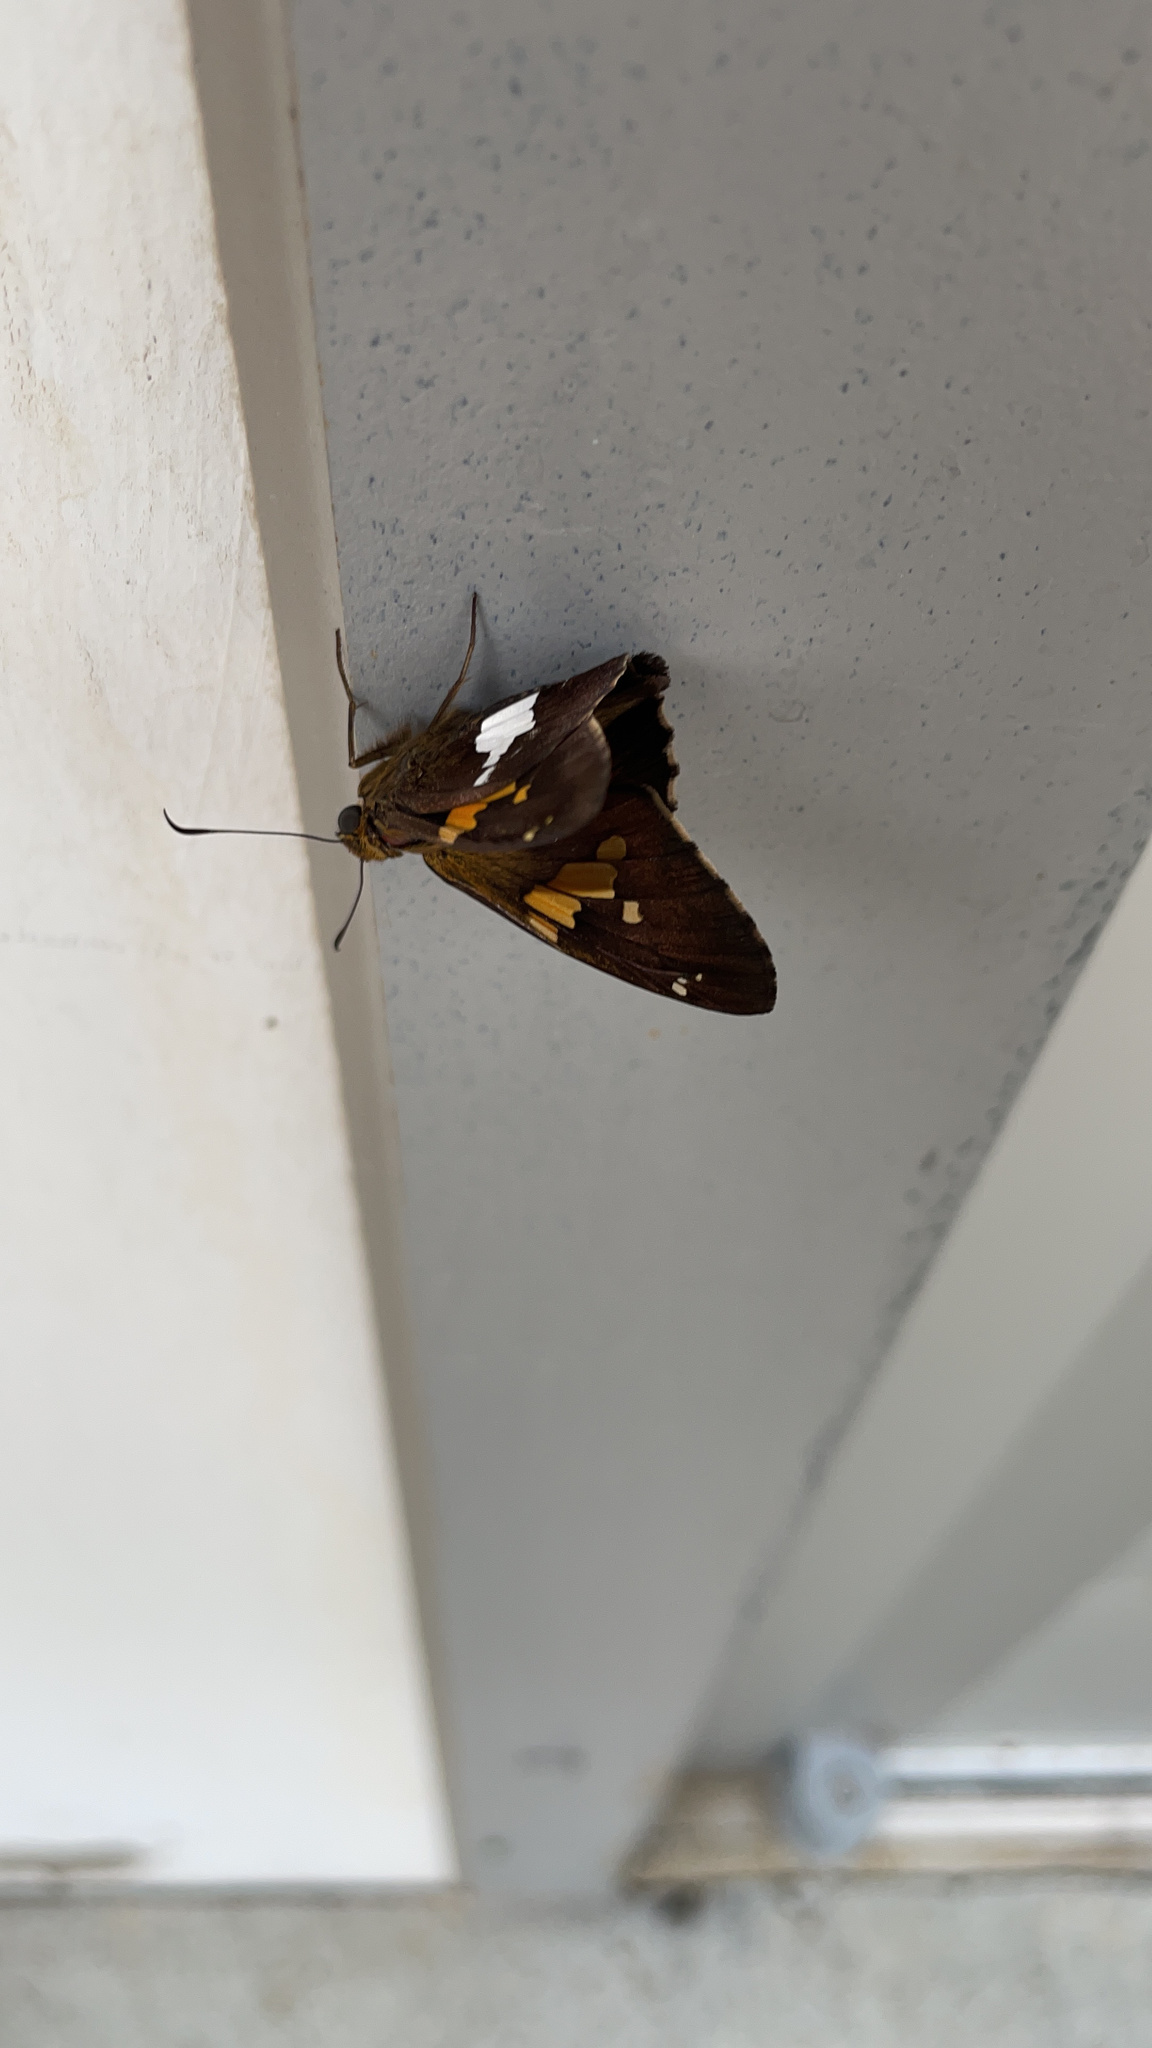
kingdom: Animalia
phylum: Arthropoda
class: Insecta
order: Lepidoptera
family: Hesperiidae
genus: Epargyreus
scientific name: Epargyreus clarus
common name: Silver-spotted skipper
